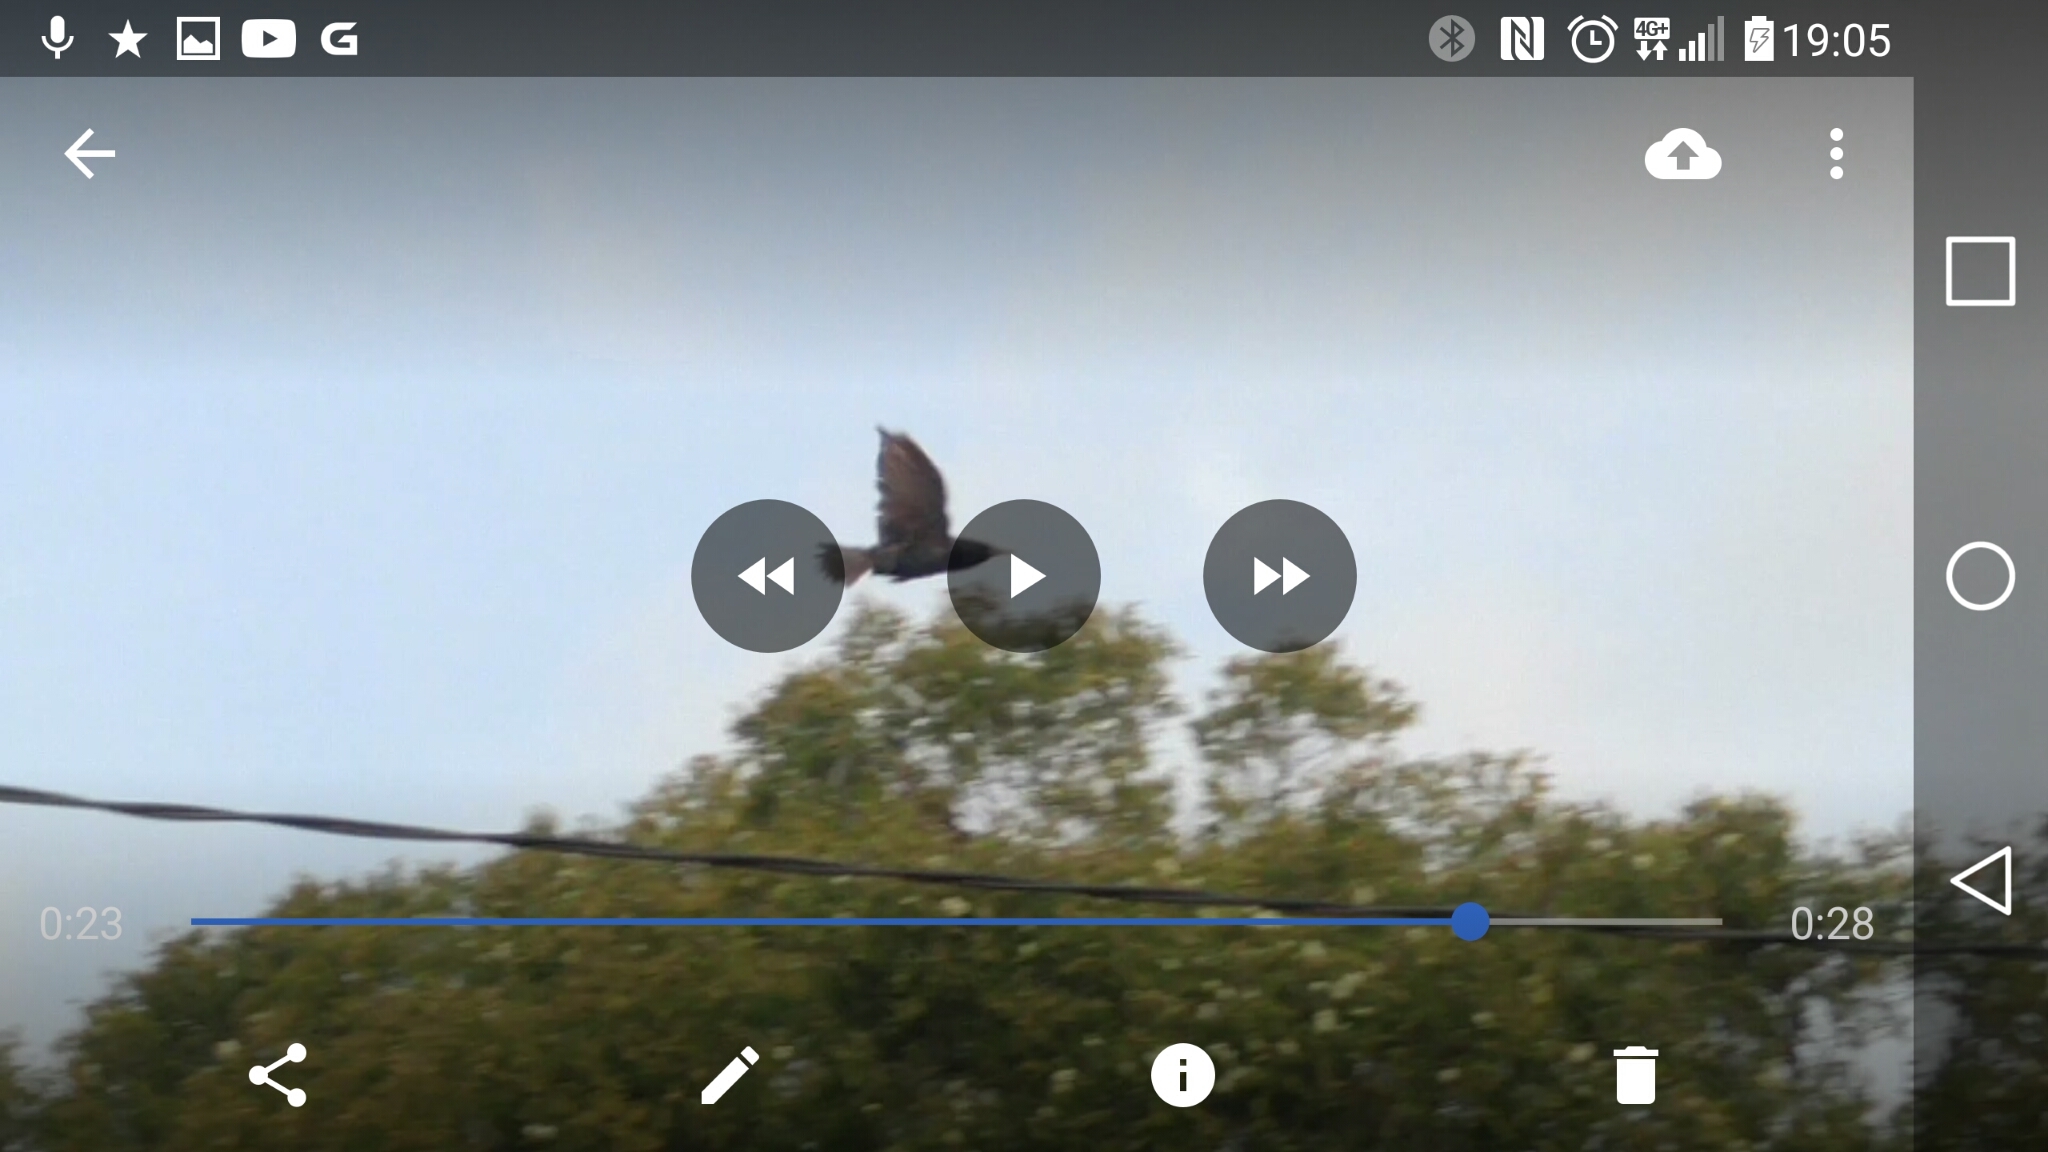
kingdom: Animalia
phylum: Chordata
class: Aves
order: Passeriformes
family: Sturnidae
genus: Sturnus
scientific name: Sturnus vulgaris
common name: Common starling
